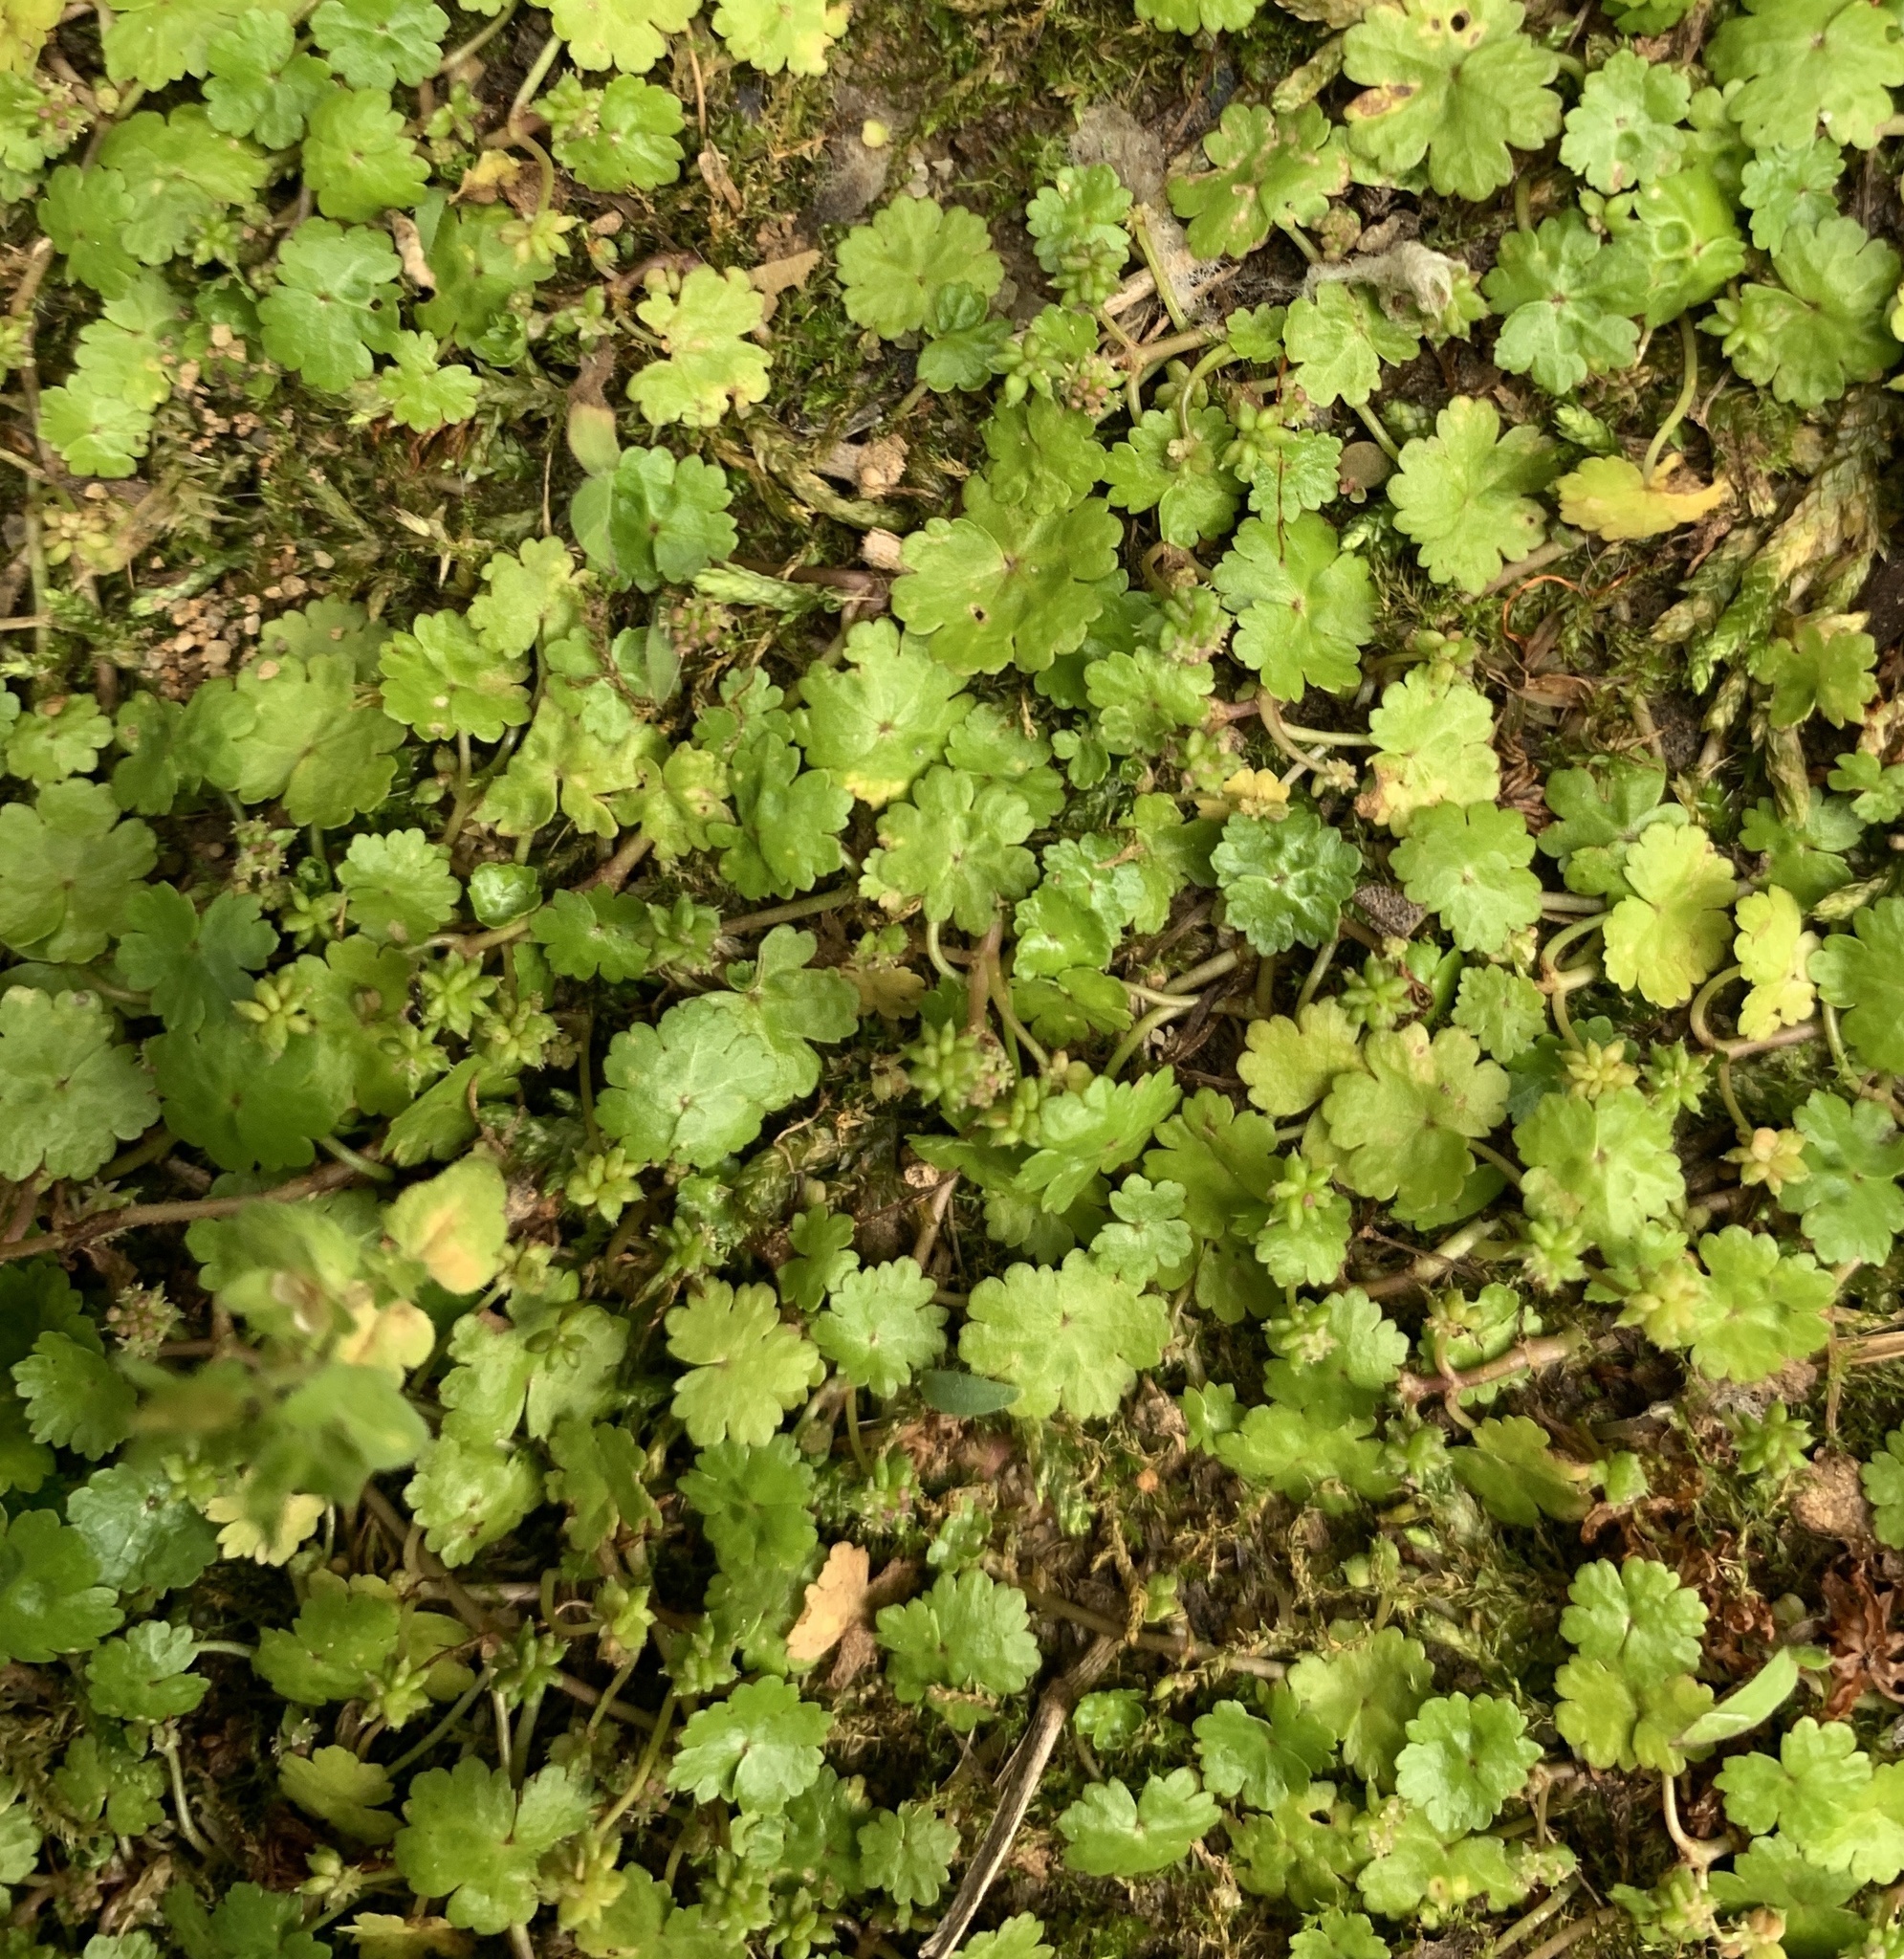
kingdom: Plantae
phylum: Tracheophyta
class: Magnoliopsida
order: Apiales
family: Araliaceae
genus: Hydrocotyle
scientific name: Hydrocotyle sibthorpioides
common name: Lawn marshpennywort
